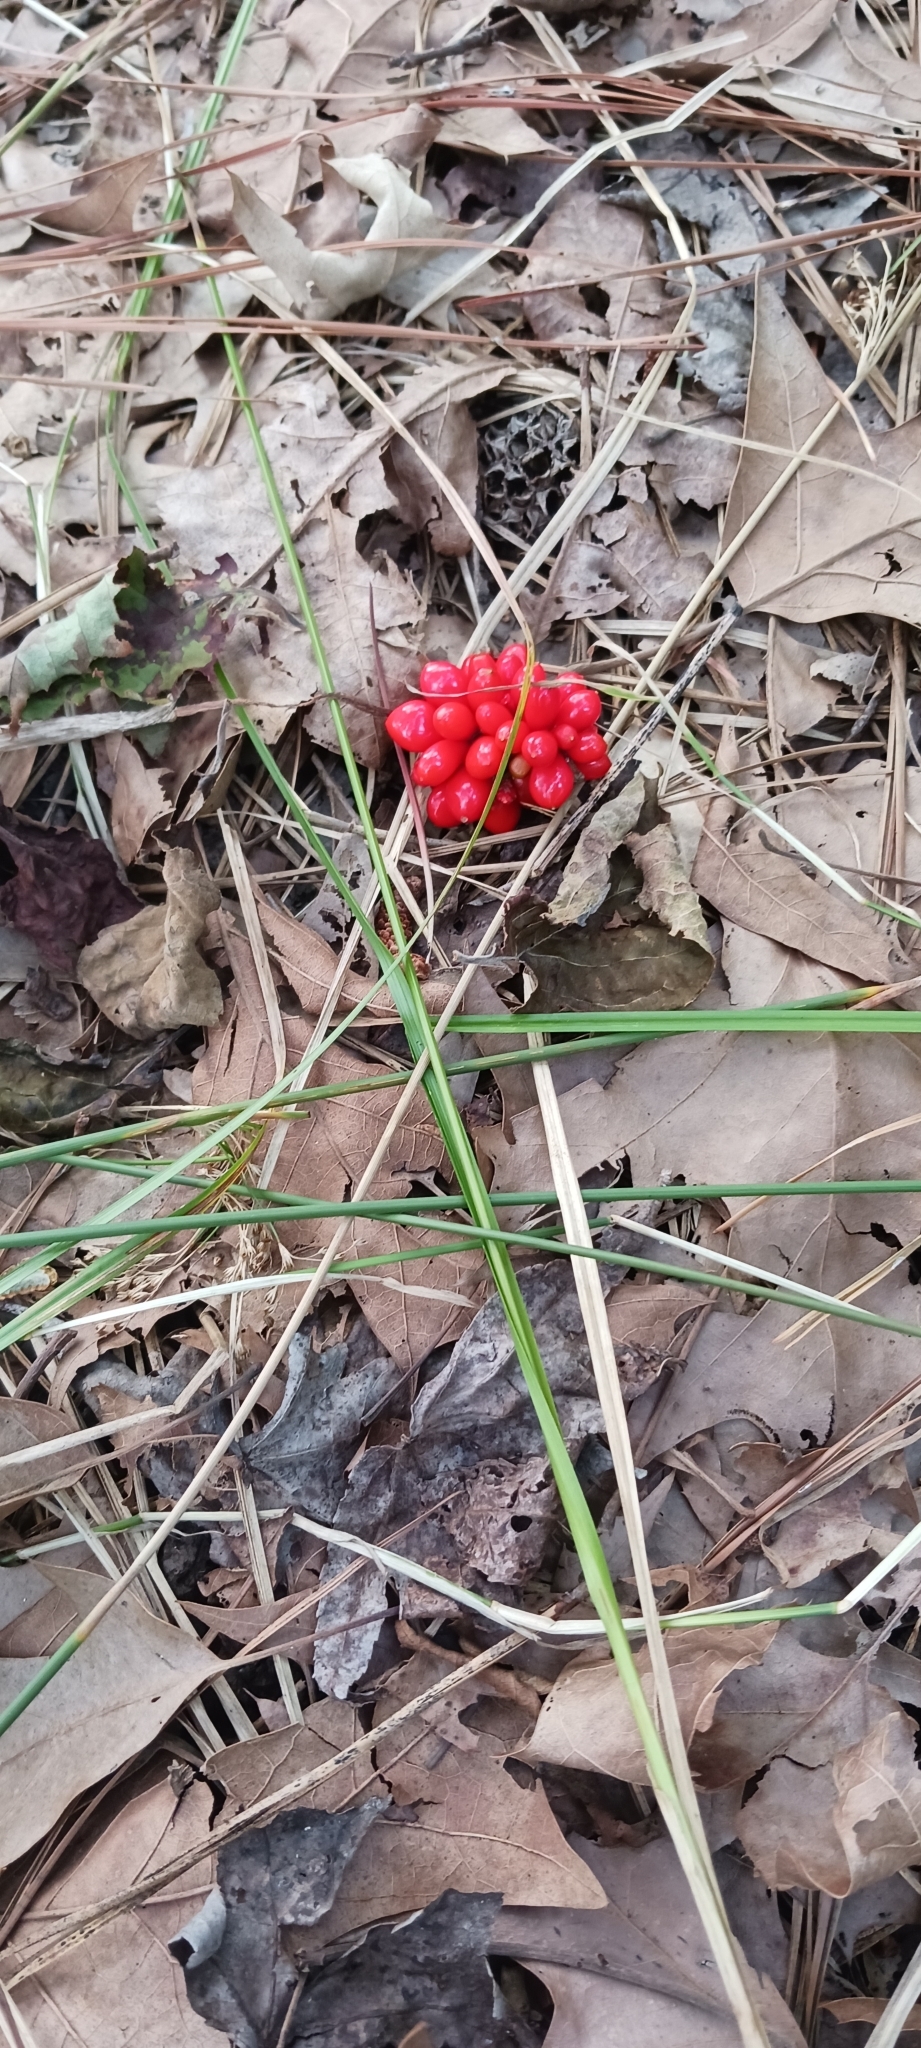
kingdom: Plantae
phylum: Tracheophyta
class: Liliopsida
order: Alismatales
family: Araceae
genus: Arisaema
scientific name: Arisaema triphyllum
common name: Jack-in-the-pulpit
